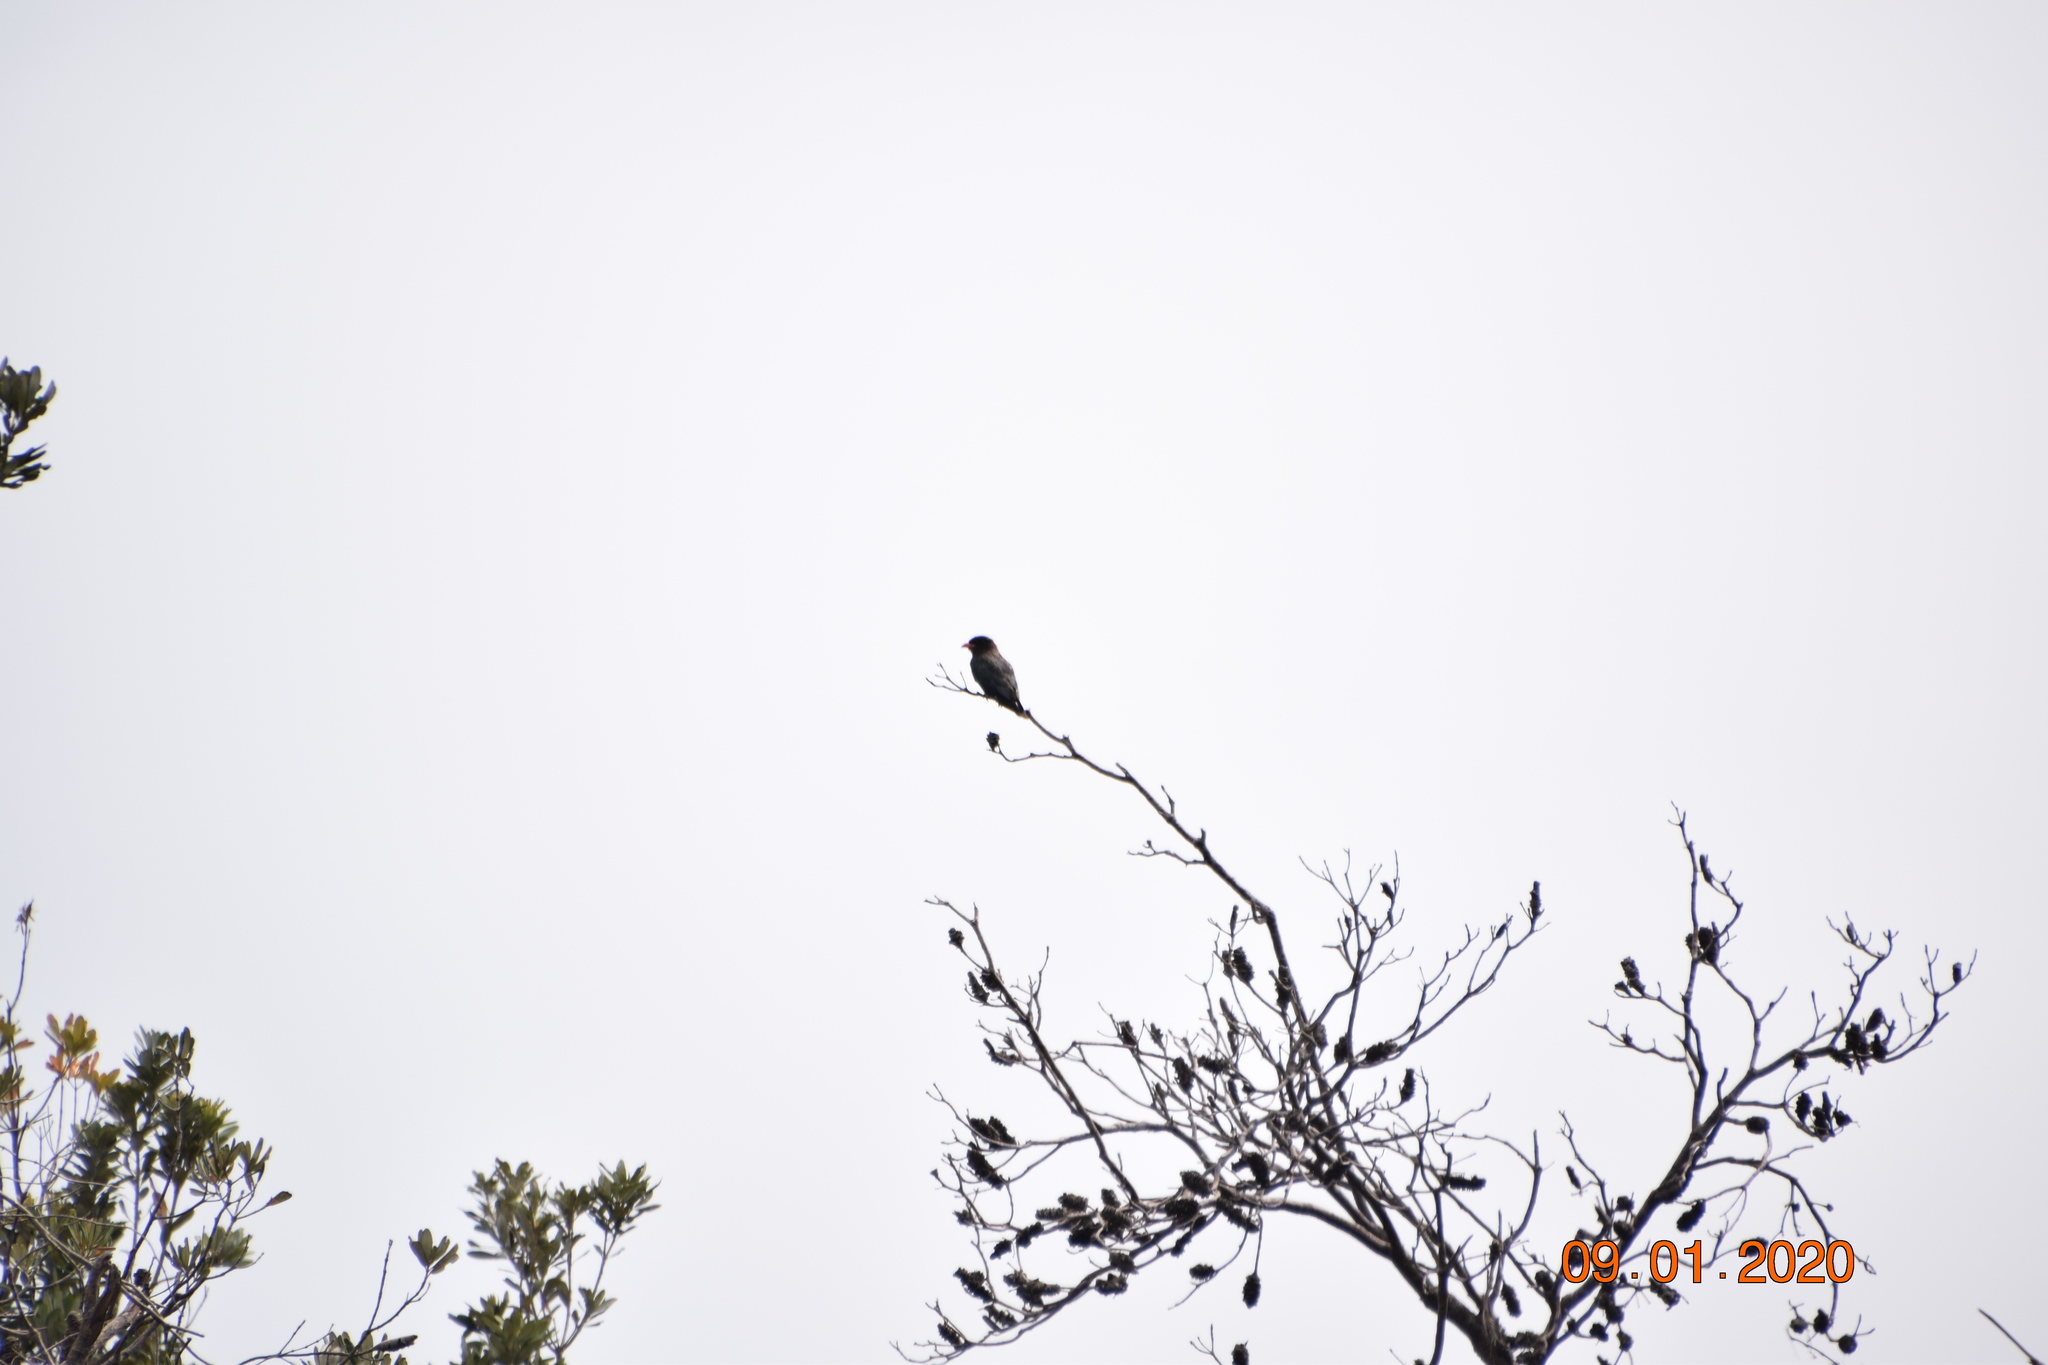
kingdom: Animalia
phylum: Chordata
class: Aves
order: Coraciiformes
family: Coraciidae
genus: Eurystomus
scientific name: Eurystomus orientalis
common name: Oriental dollarbird
